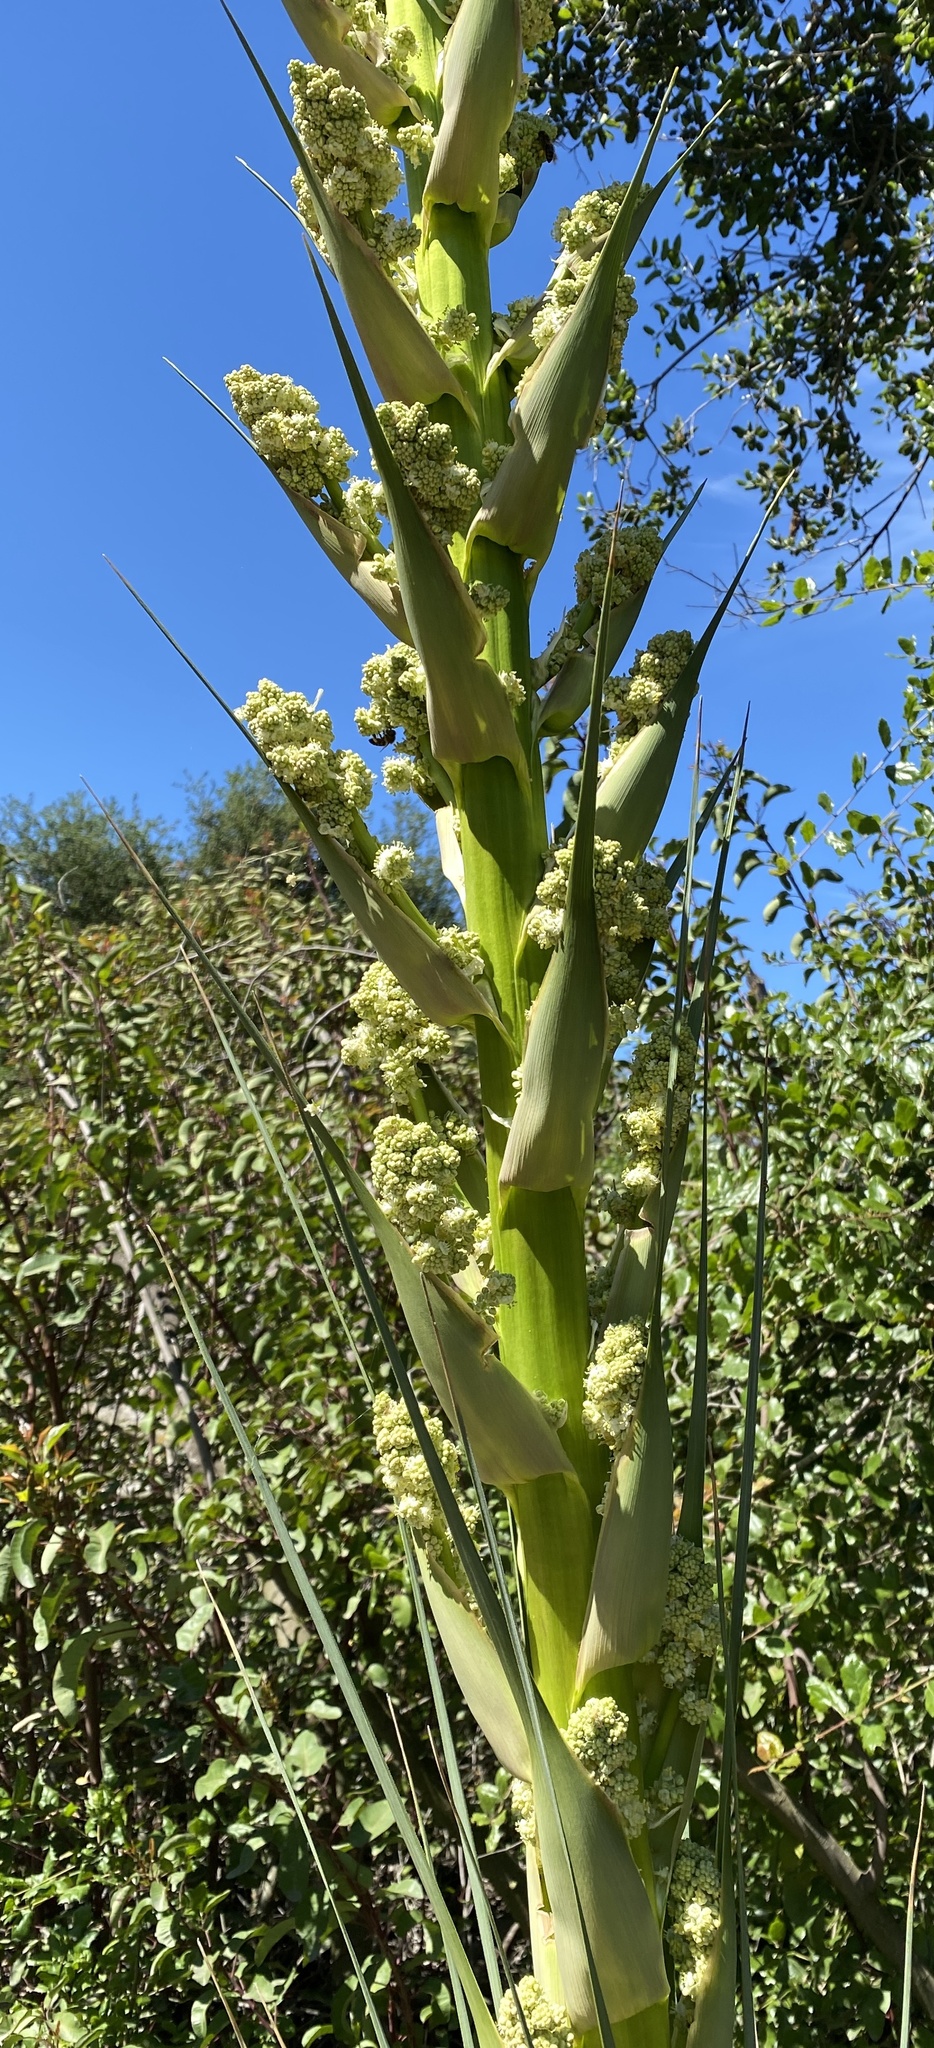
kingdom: Plantae
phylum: Tracheophyta
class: Liliopsida
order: Asparagales
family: Asparagaceae
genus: Nolina
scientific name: Nolina cismontana
